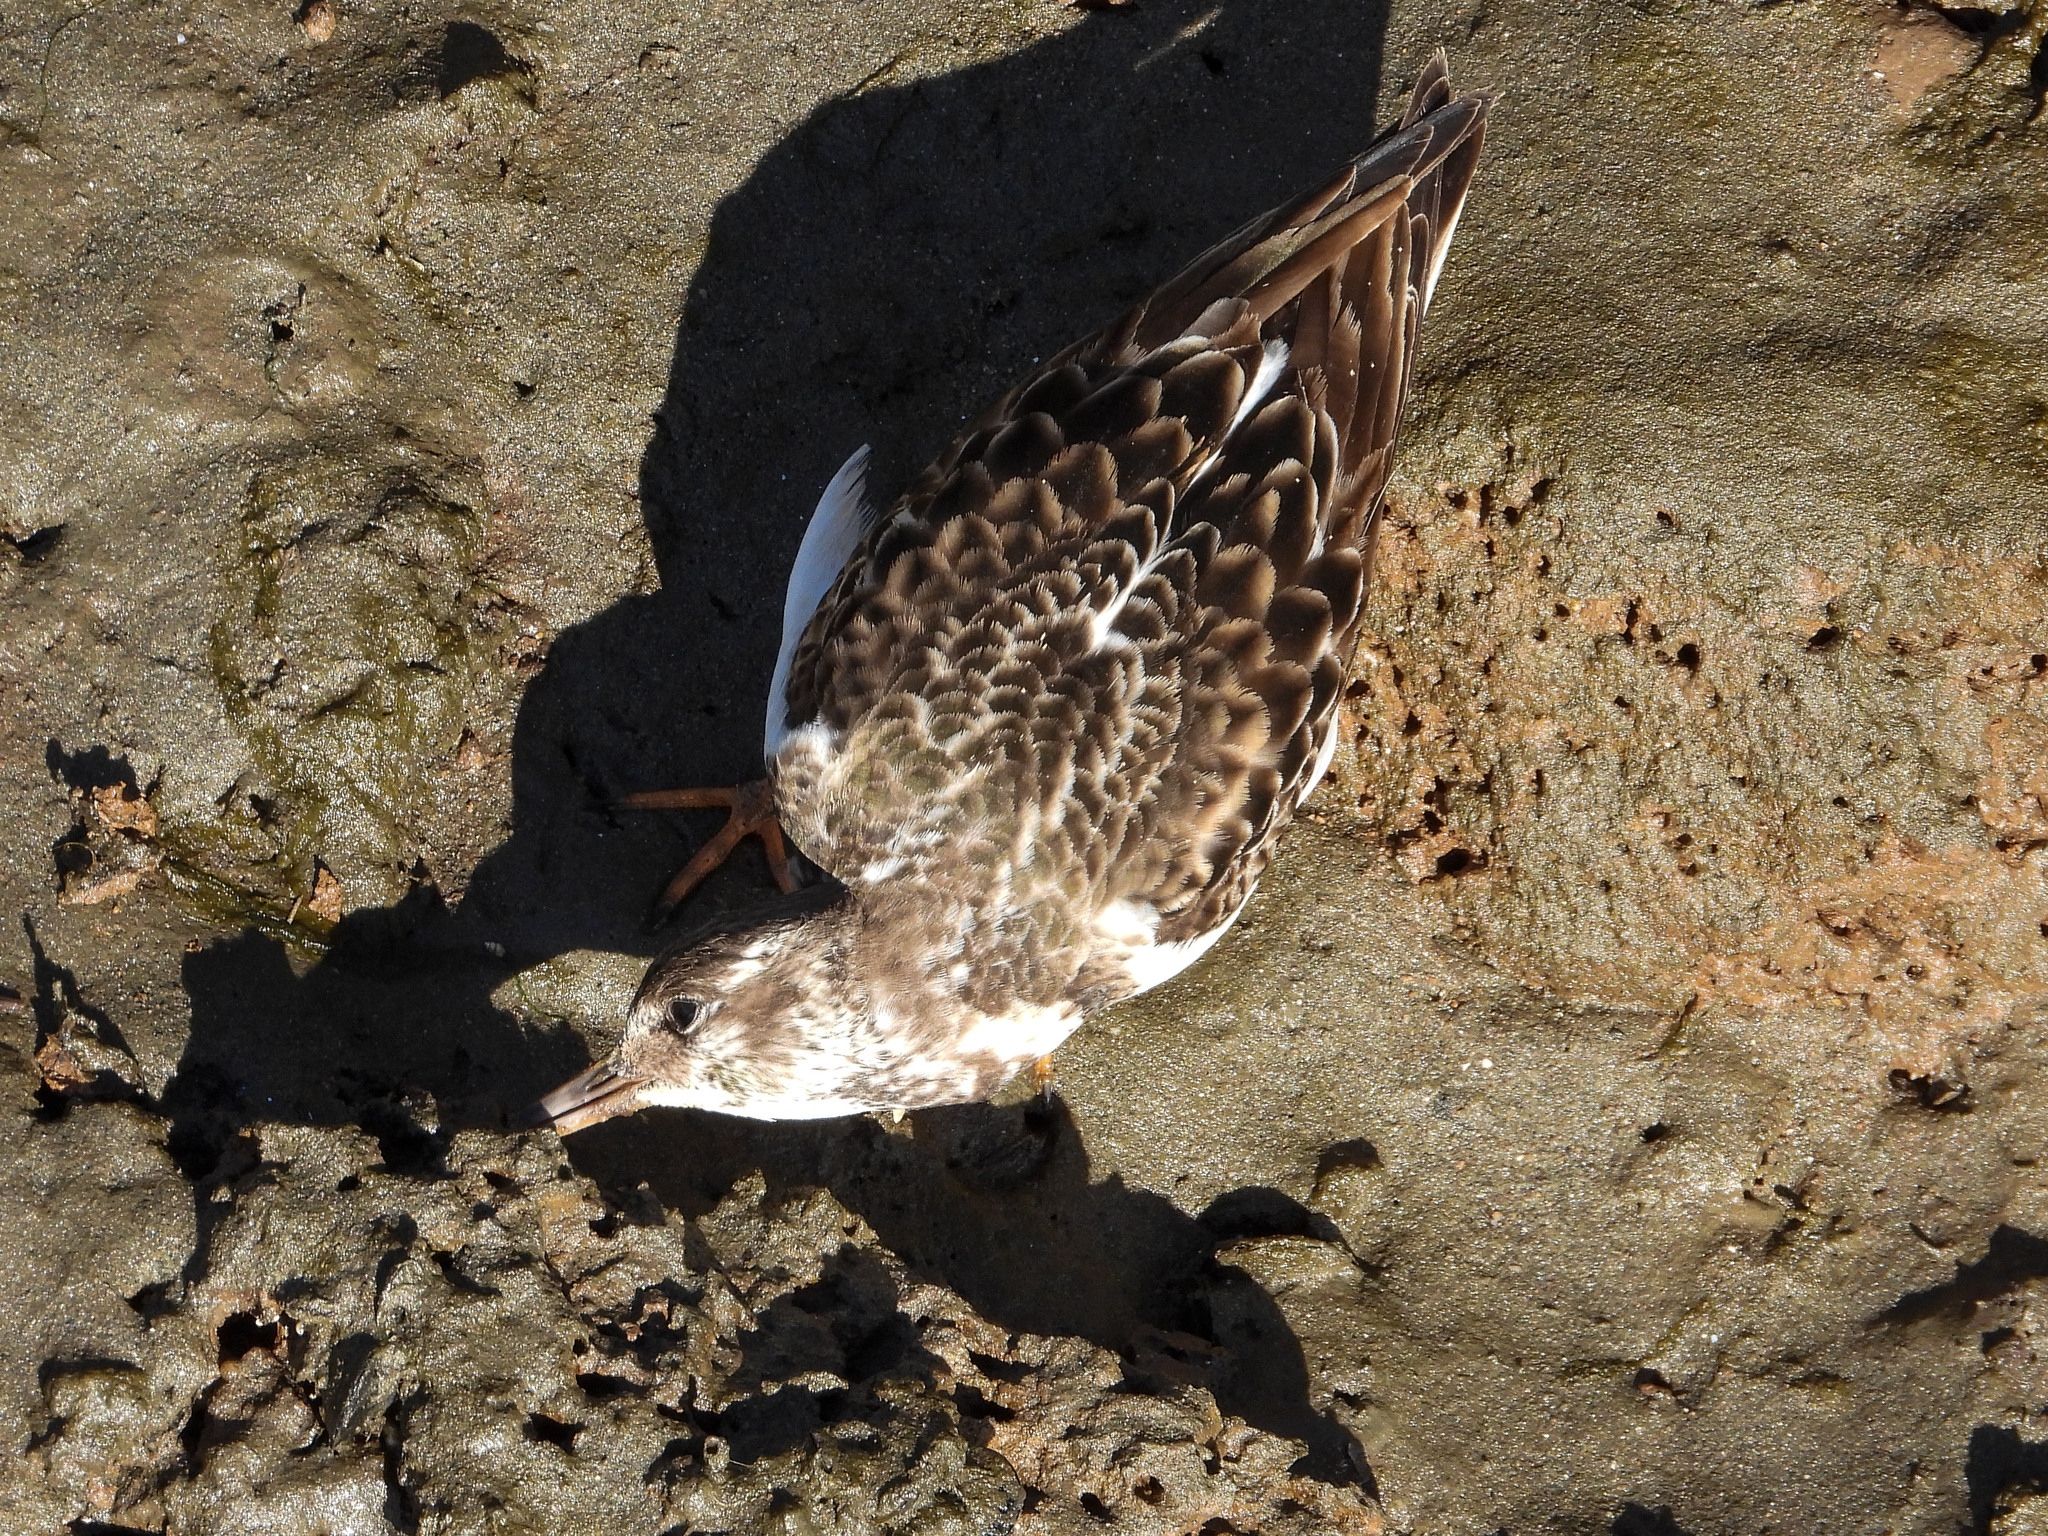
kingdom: Animalia
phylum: Chordata
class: Aves
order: Charadriiformes
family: Scolopacidae
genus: Arenaria
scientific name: Arenaria interpres
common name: Ruddy turnstone
